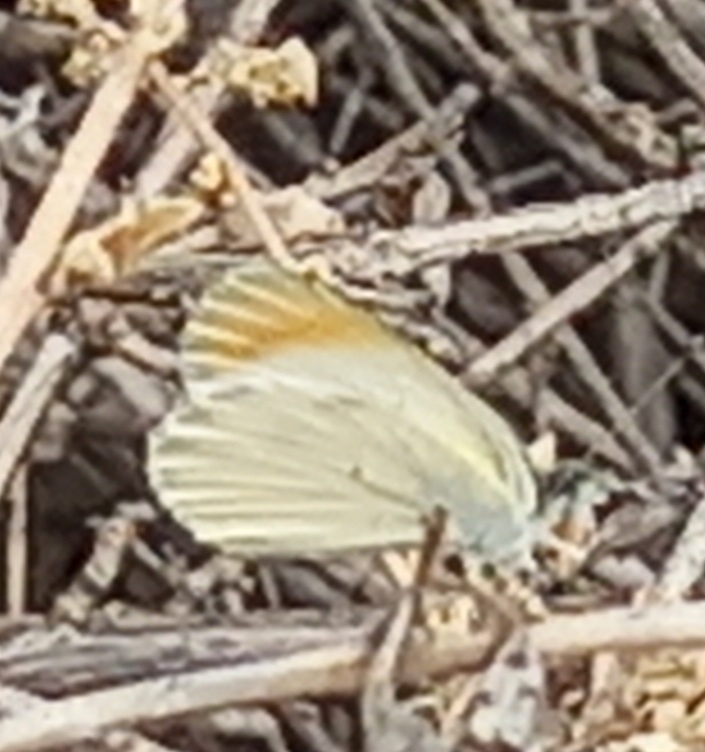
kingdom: Animalia
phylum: Arthropoda
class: Insecta
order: Lepidoptera
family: Pieridae
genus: Colotis
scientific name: Colotis evagore
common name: Desert orange-tip
